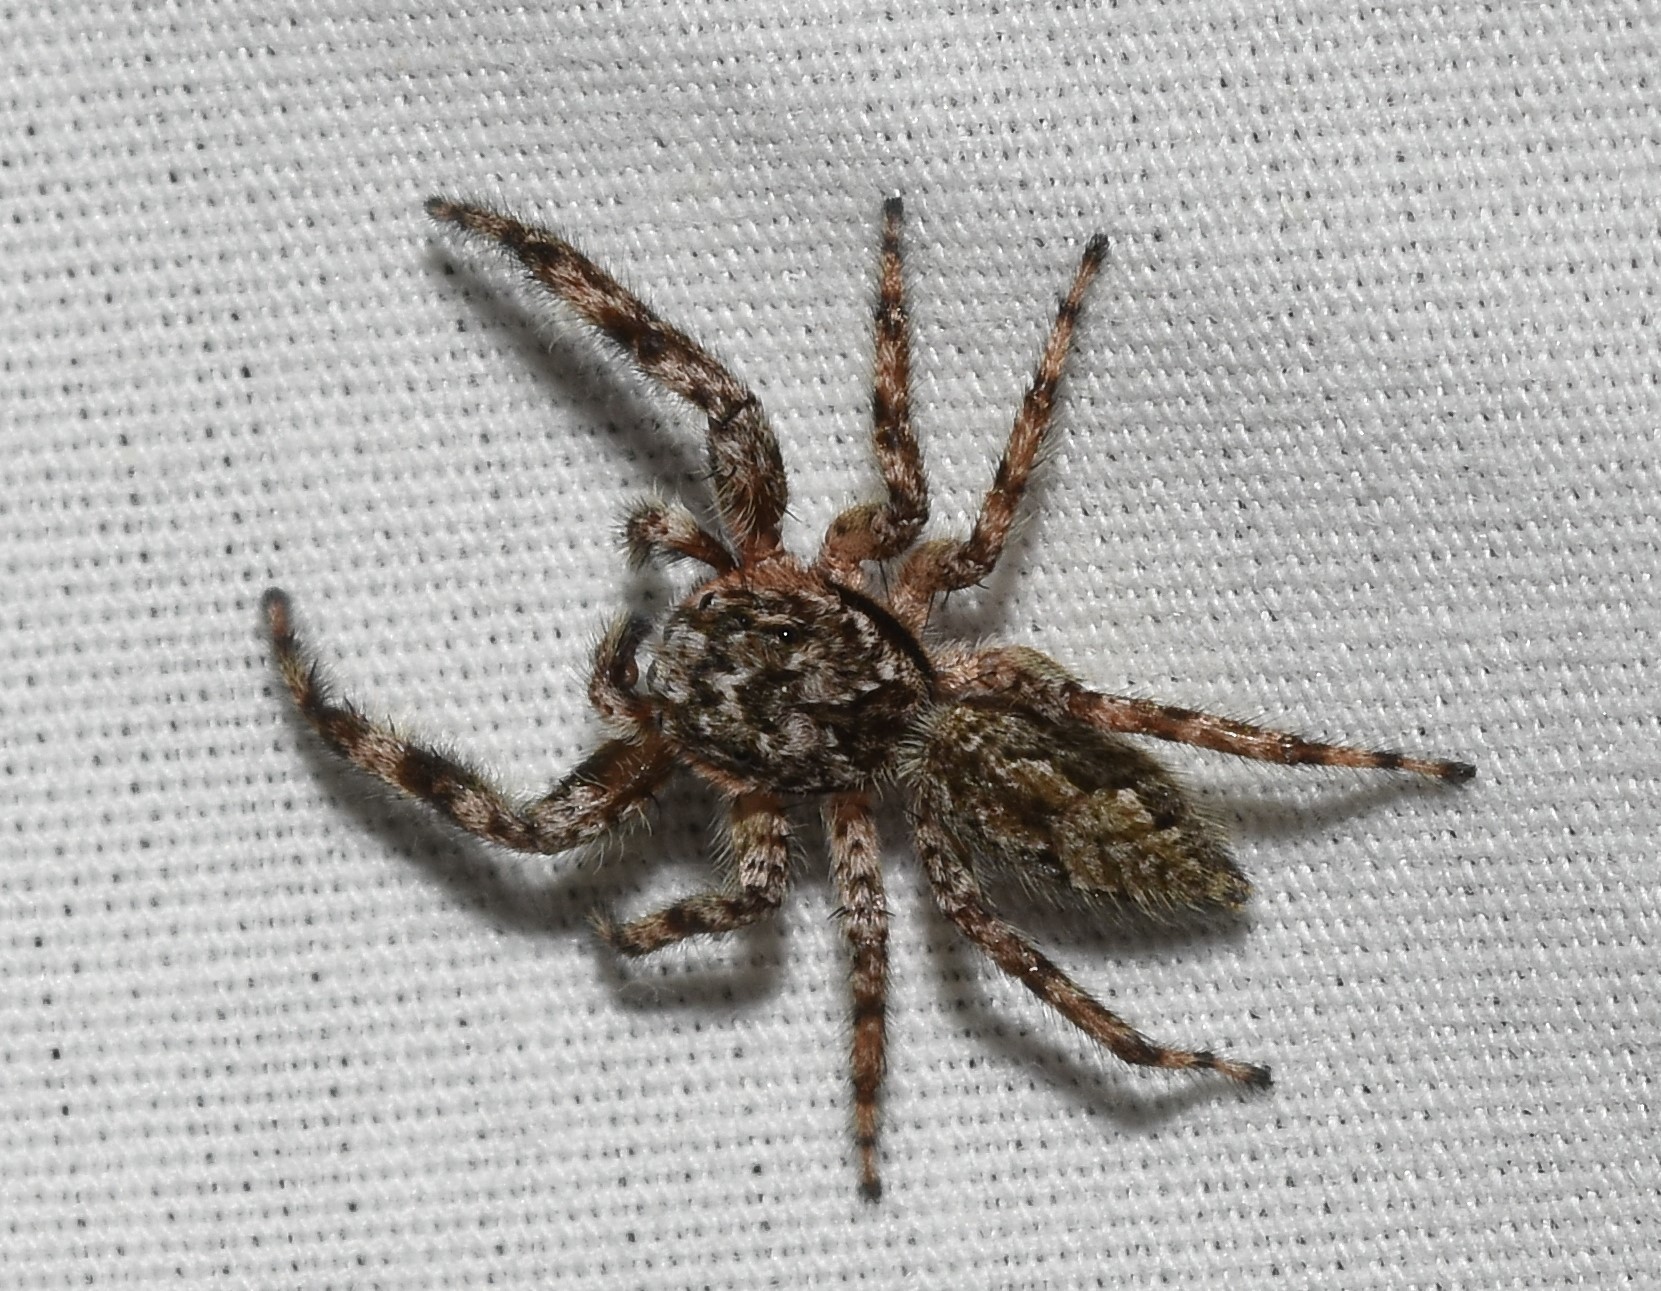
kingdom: Animalia
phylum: Arthropoda
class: Arachnida
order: Araneae
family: Salticidae
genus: Platycryptus
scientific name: Platycryptus undatus
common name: Tan jumping spider
